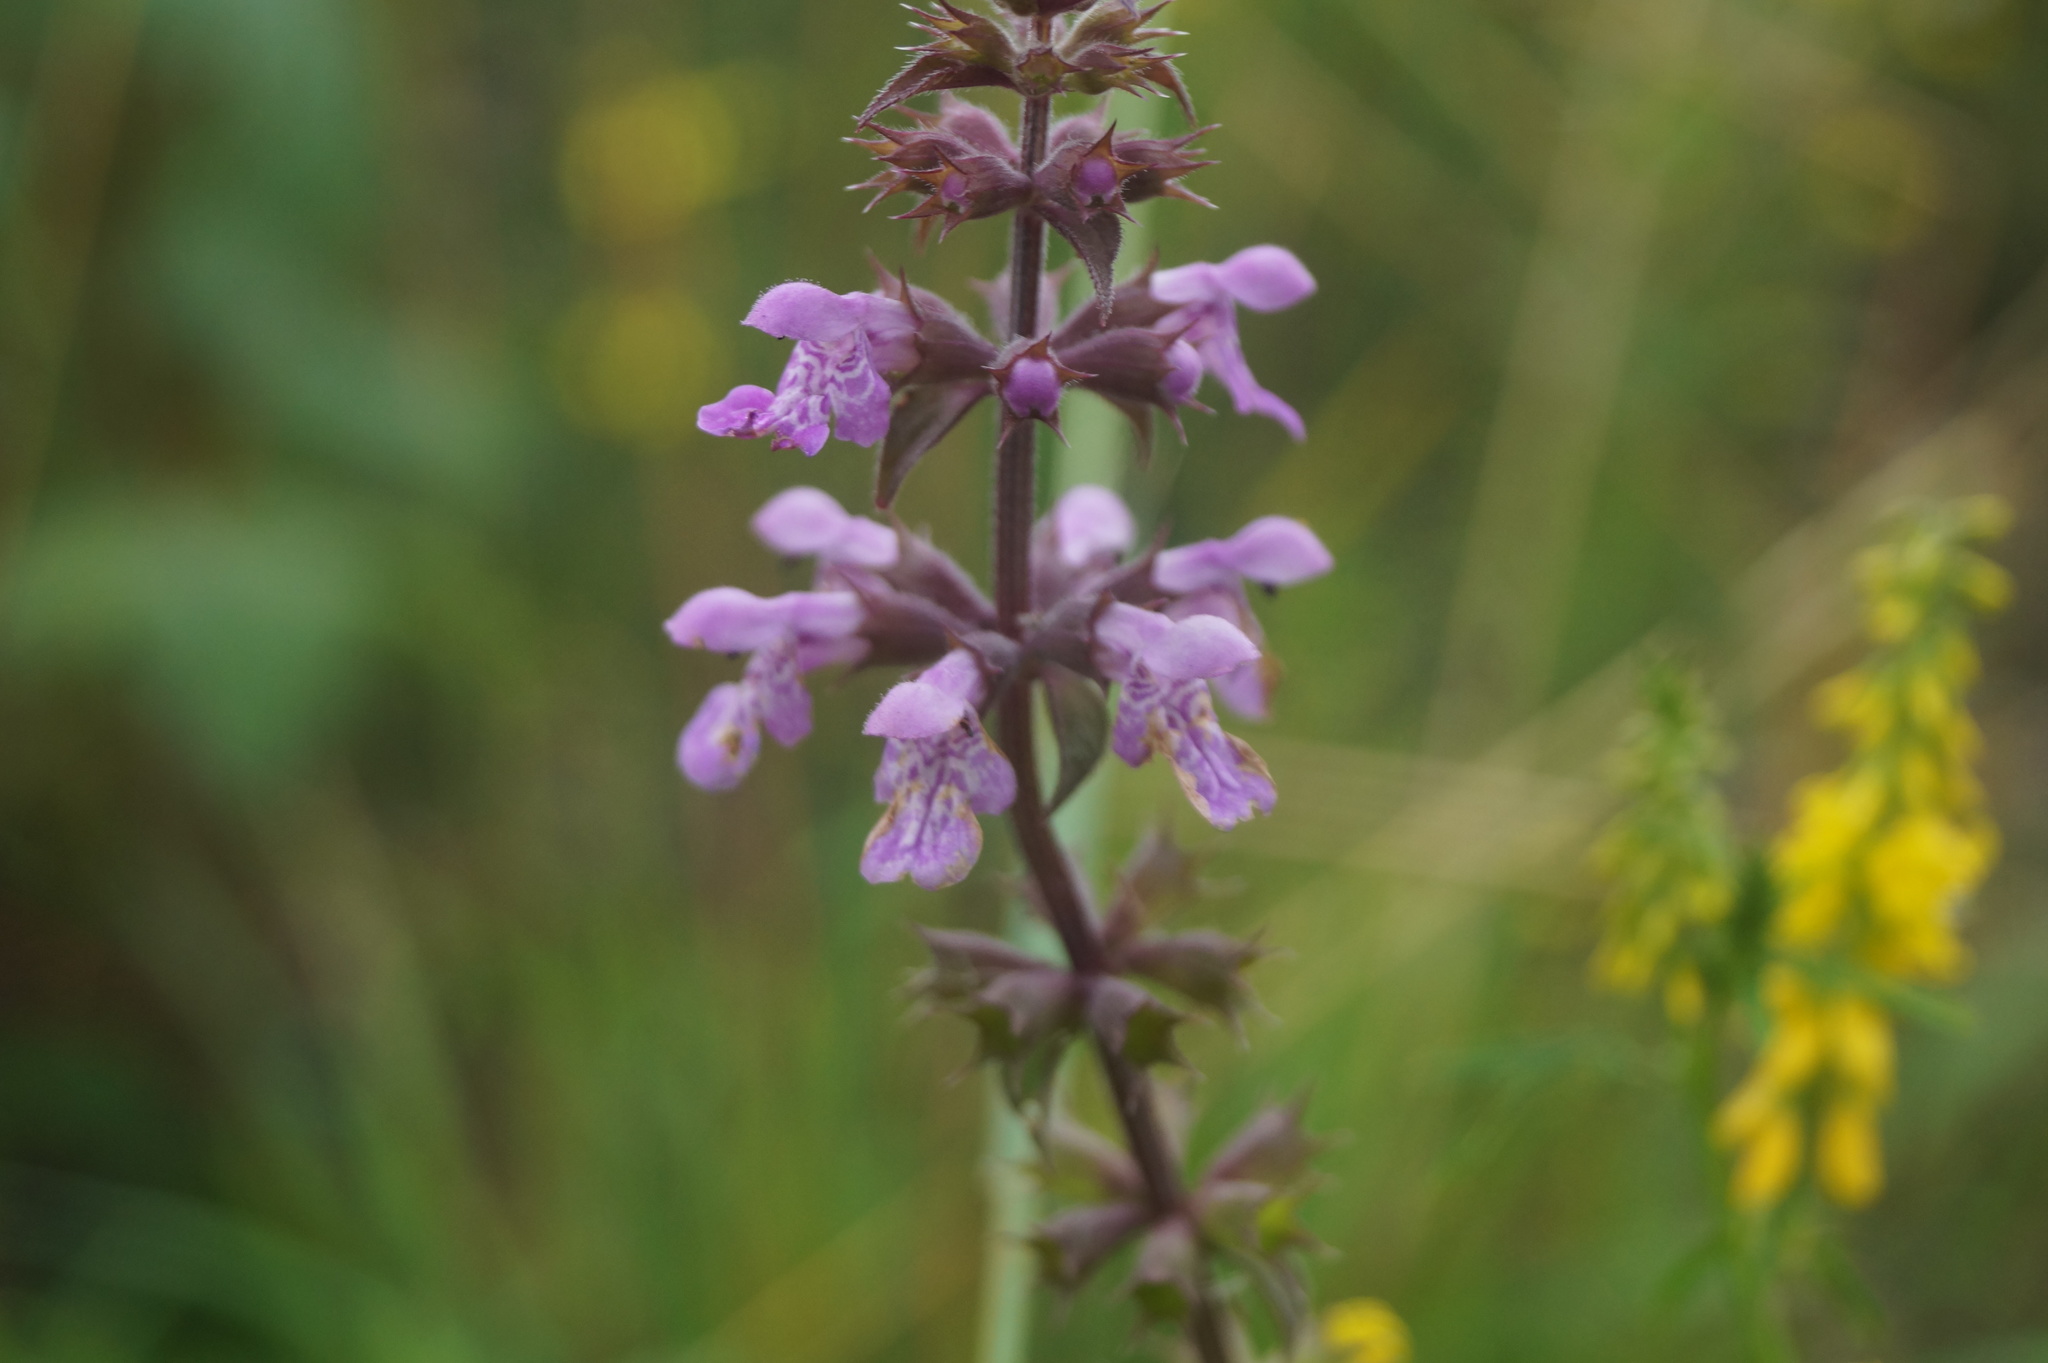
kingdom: Plantae
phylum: Tracheophyta
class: Magnoliopsida
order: Lamiales
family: Lamiaceae
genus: Stachys
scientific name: Stachys palustris
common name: Marsh woundwort
